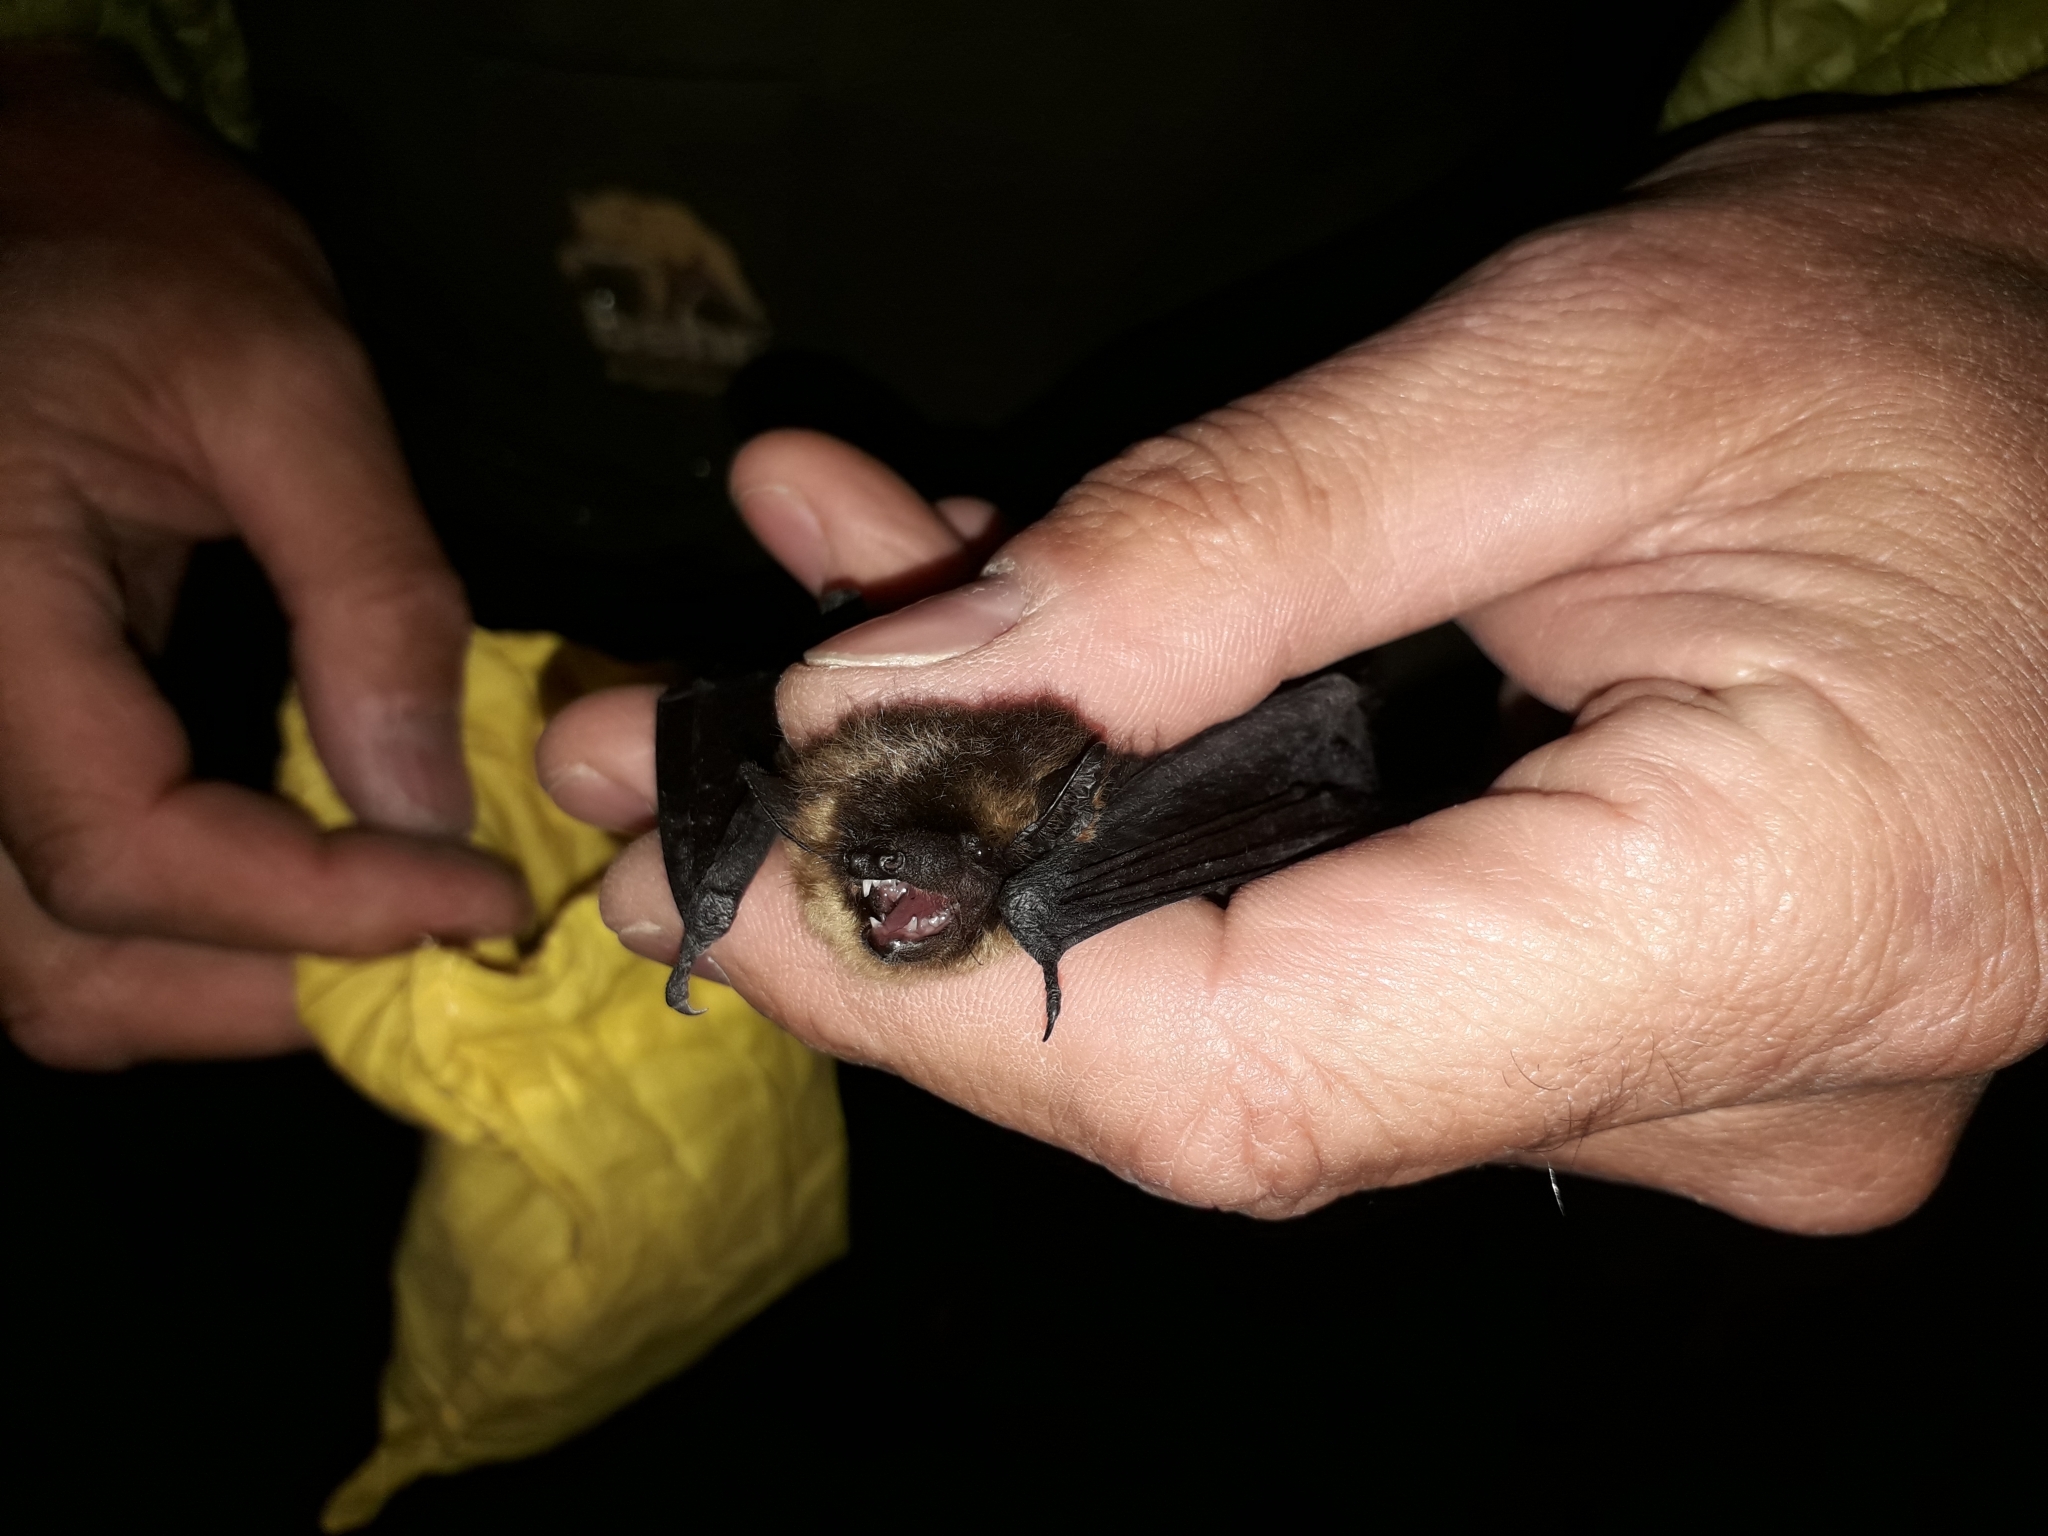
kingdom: Animalia
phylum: Chordata
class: Mammalia
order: Chiroptera
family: Vespertilionidae
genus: Eptesicus
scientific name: Eptesicus nilssonii
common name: Northern bat
